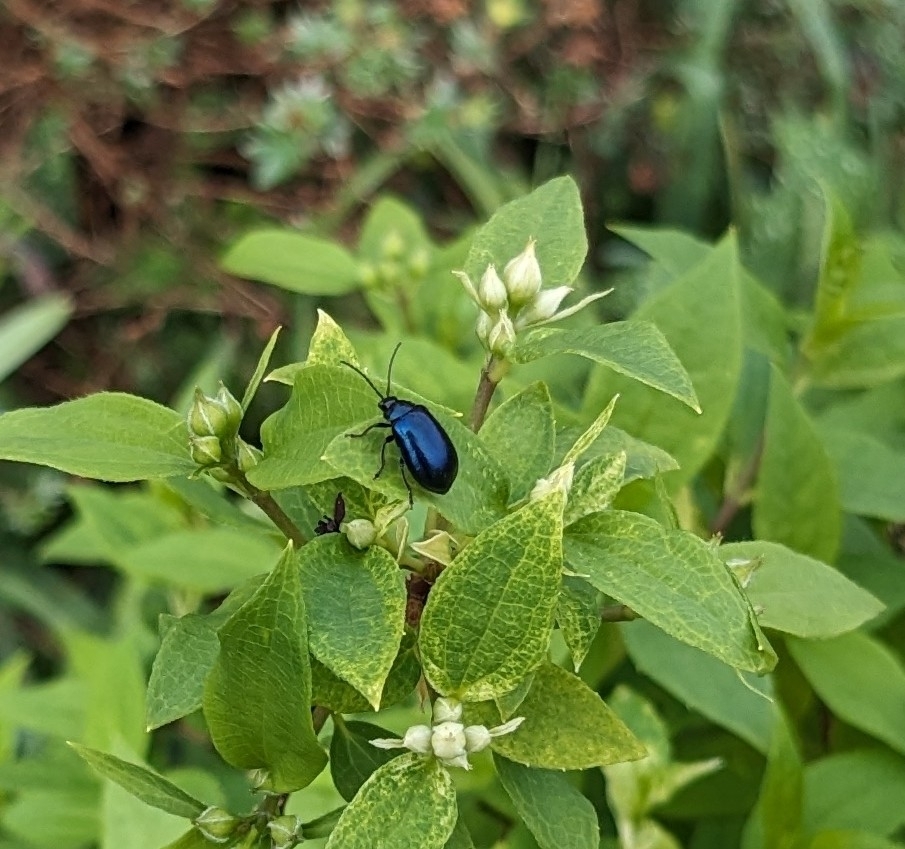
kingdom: Animalia
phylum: Arthropoda
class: Insecta
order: Coleoptera
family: Chrysomelidae
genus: Agelastica
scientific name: Agelastica alni
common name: Alder leaf beetle
